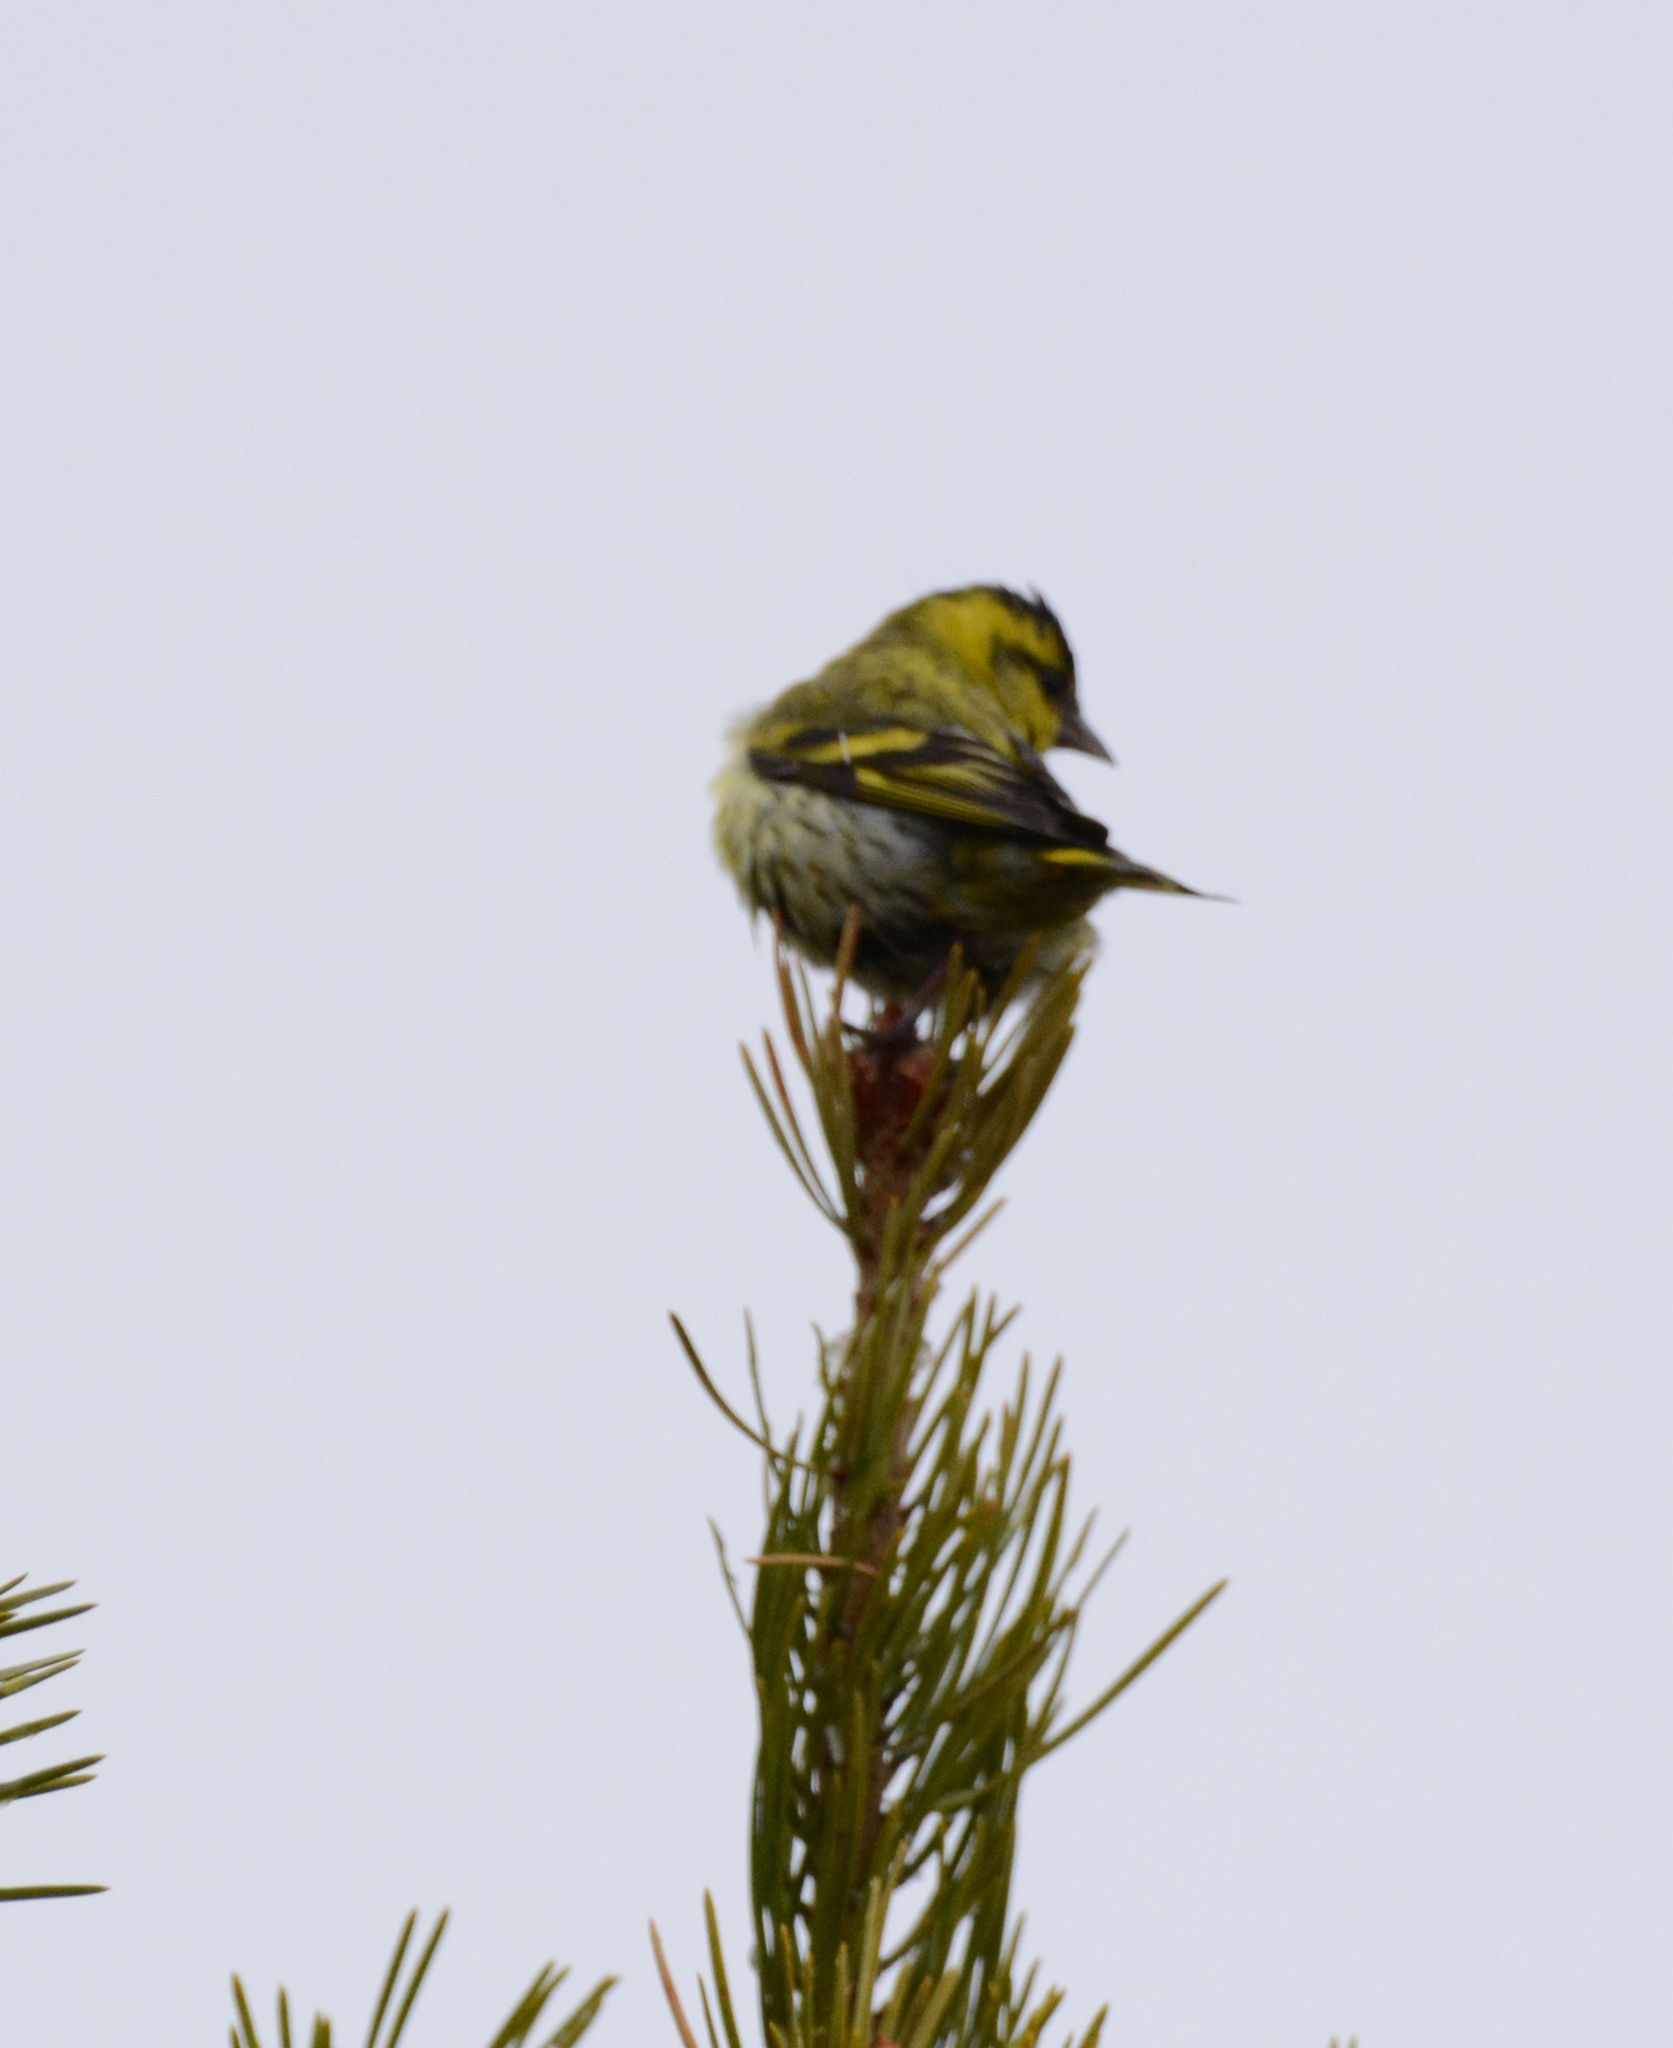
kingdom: Animalia
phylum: Chordata
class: Aves
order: Passeriformes
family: Fringillidae
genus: Spinus
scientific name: Spinus spinus
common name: Eurasian siskin
